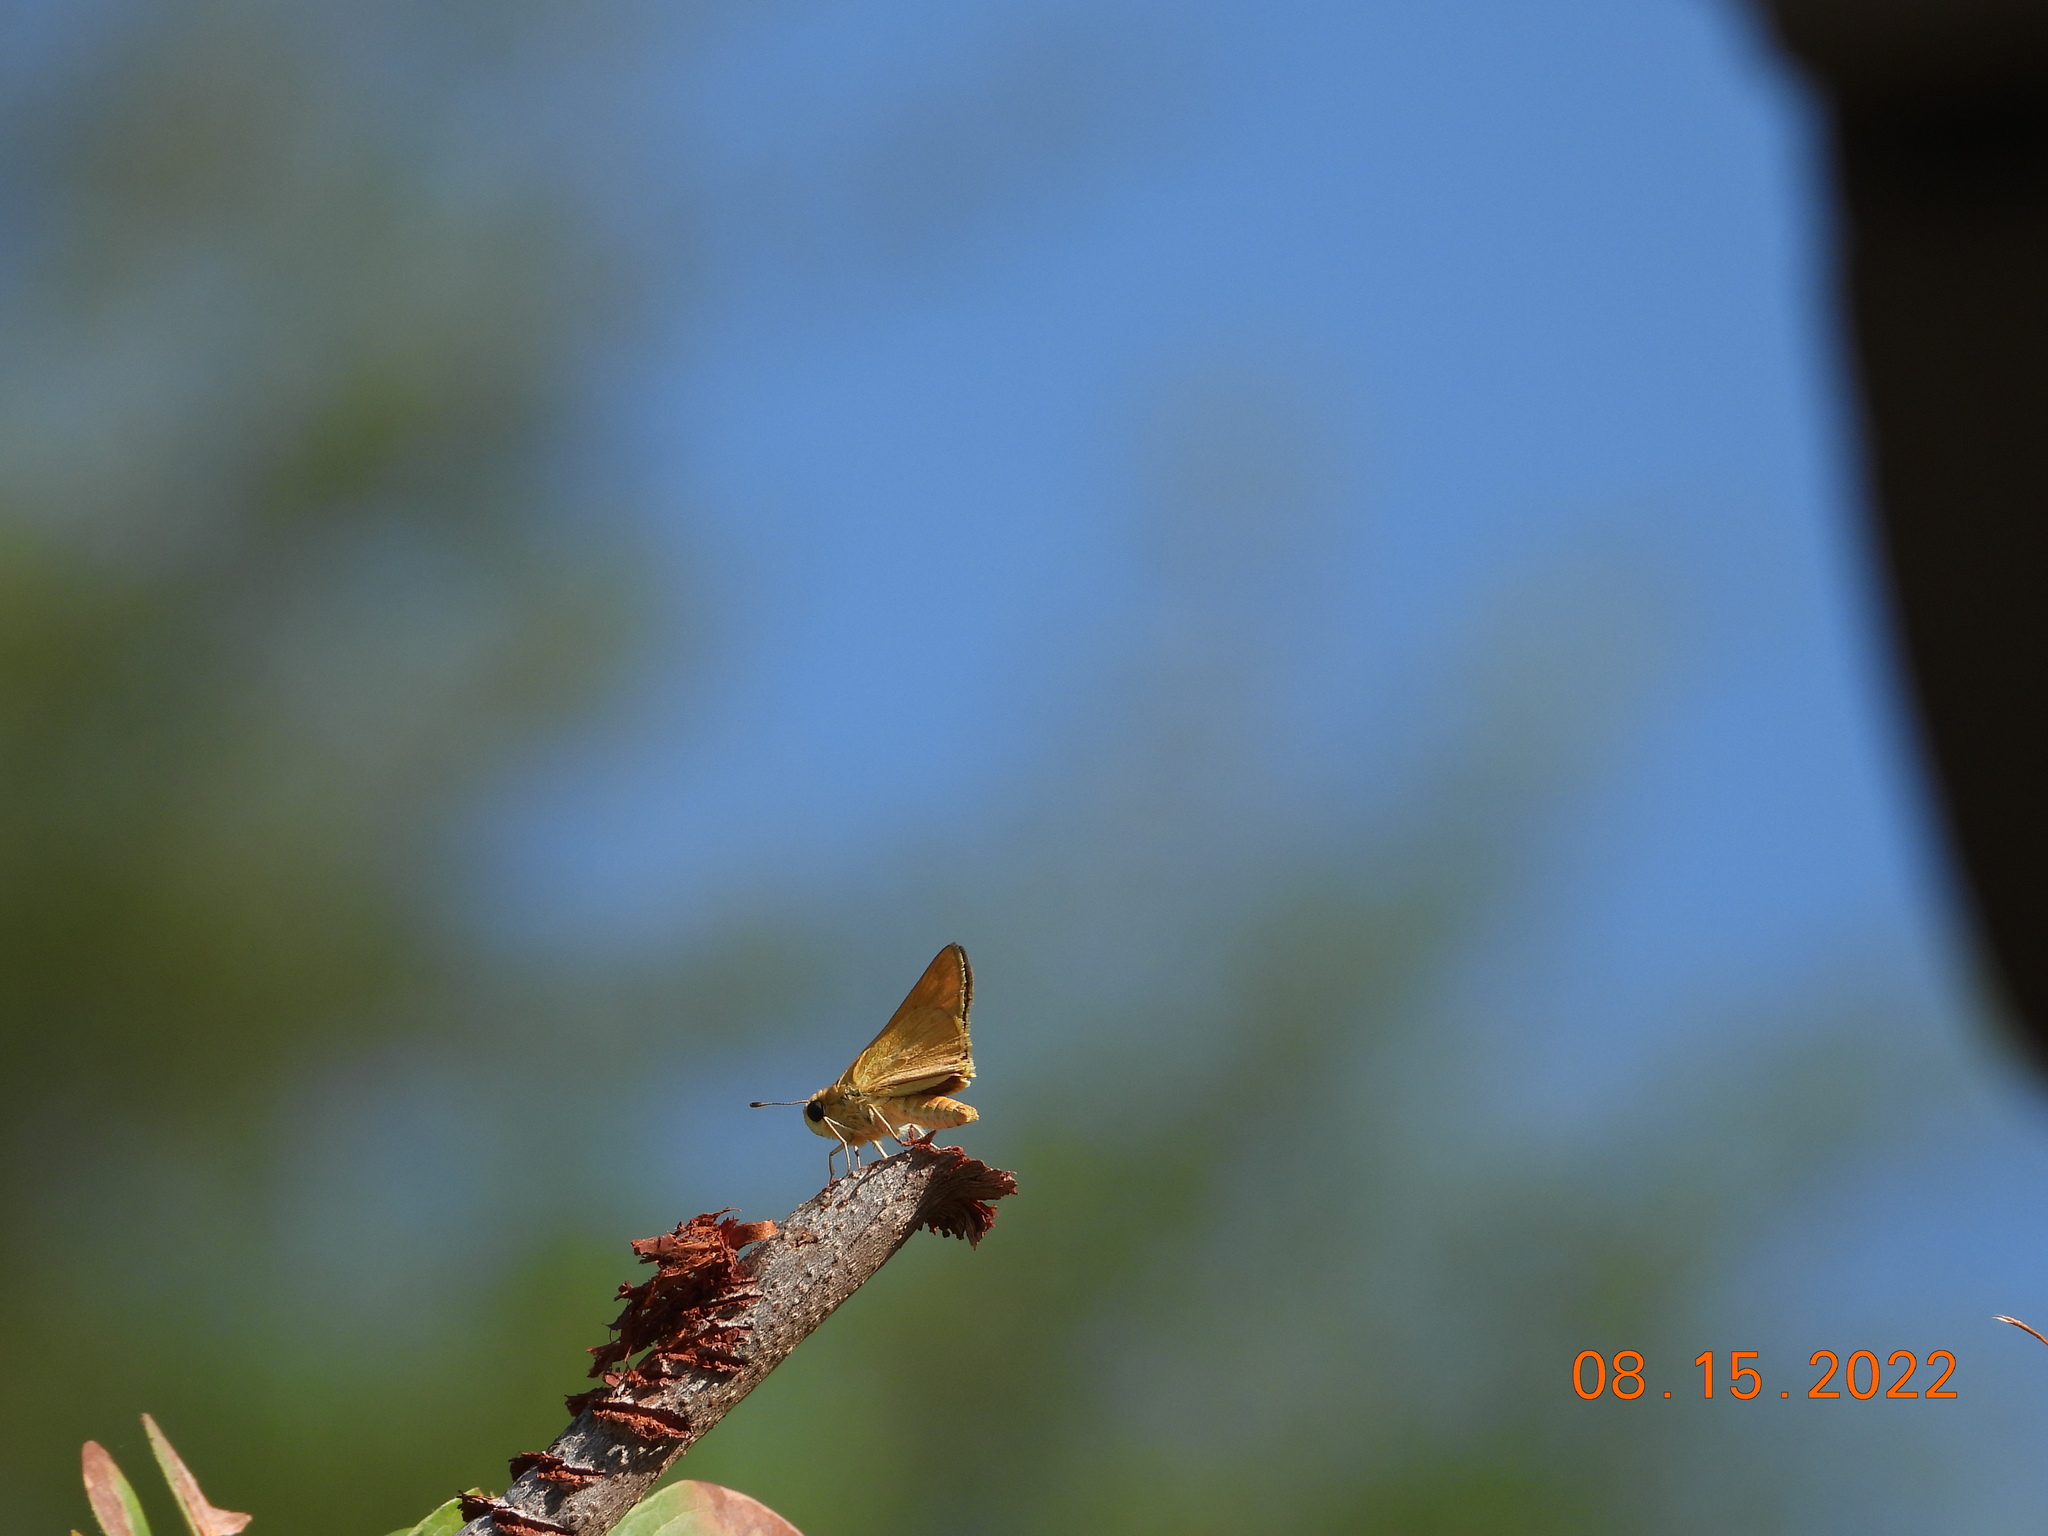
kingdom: Animalia
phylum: Arthropoda
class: Insecta
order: Lepidoptera
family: Hesperiidae
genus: Hylephila
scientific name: Hylephila phyleus
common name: Fiery skipper
